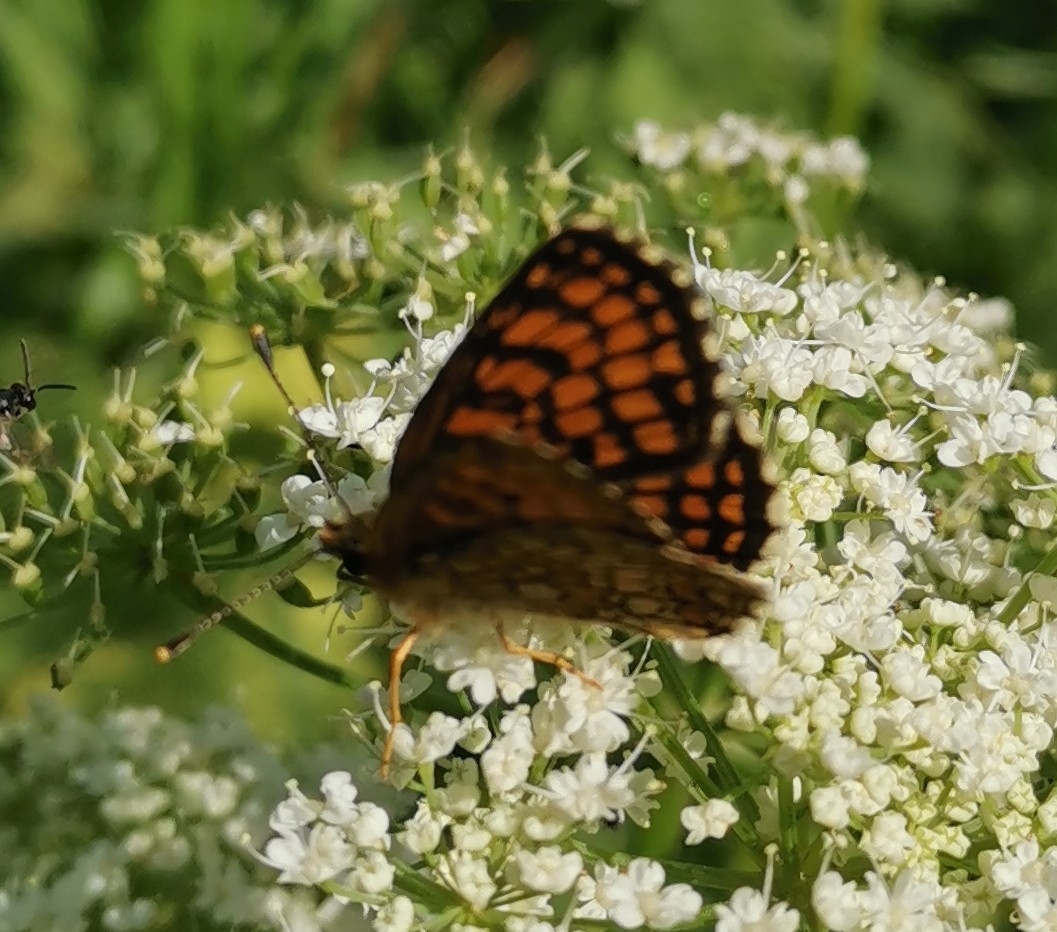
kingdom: Animalia
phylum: Arthropoda
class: Insecta
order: Lepidoptera
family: Nymphalidae
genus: Melitaea
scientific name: Melitaea athalia
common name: Heath fritillary
